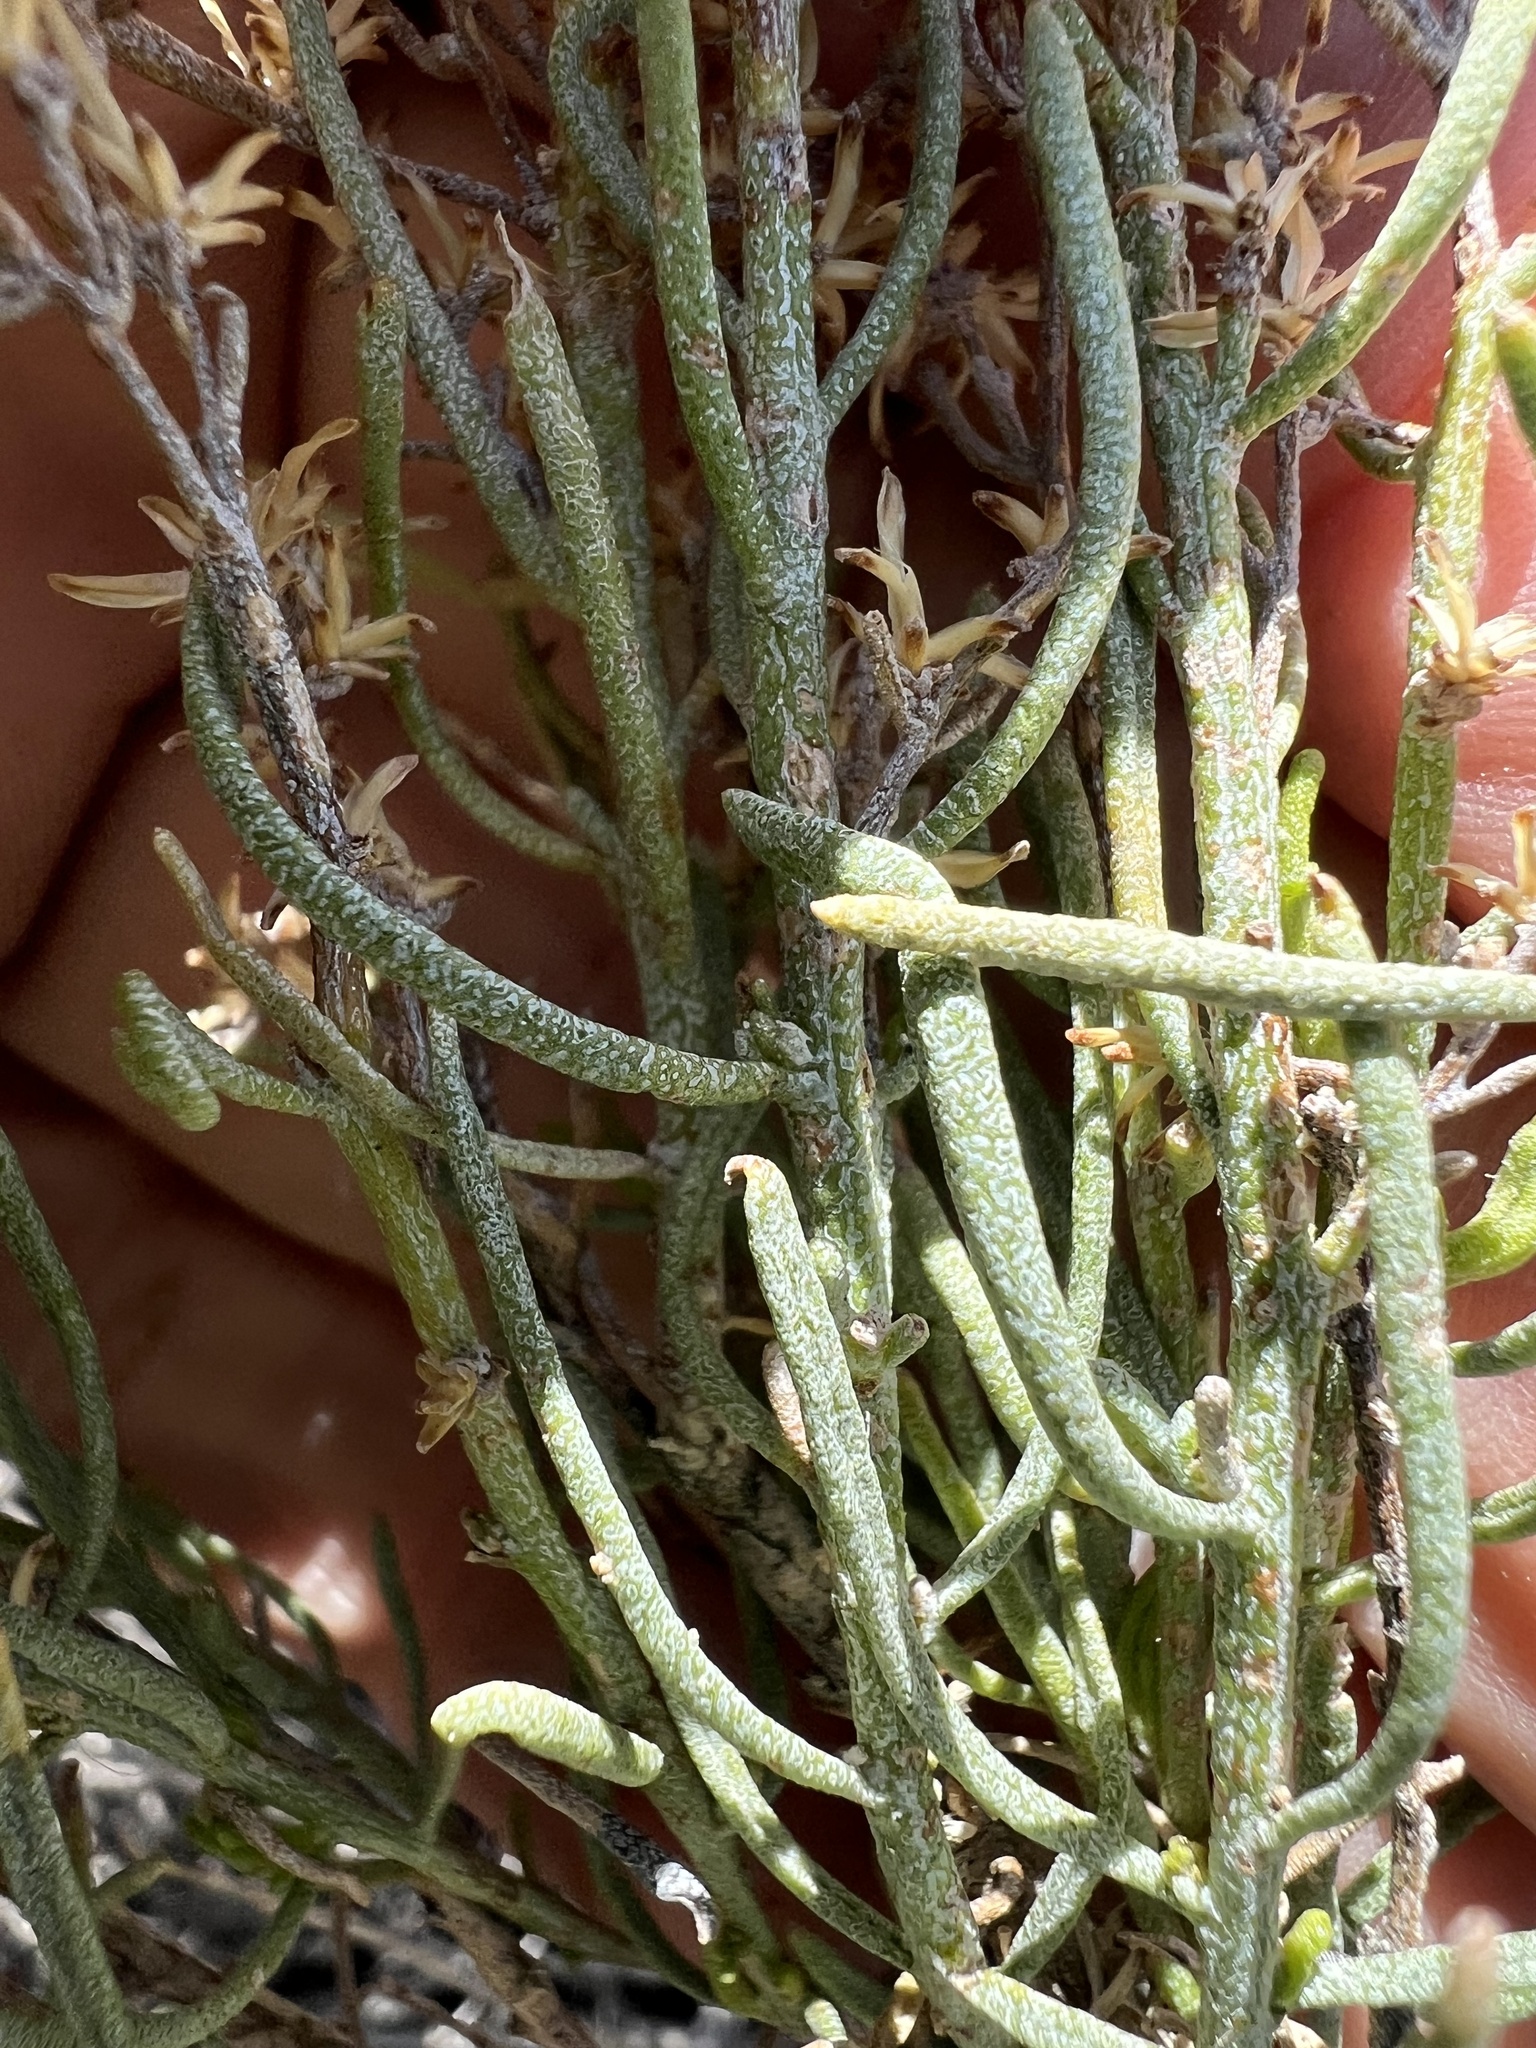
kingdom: Plantae
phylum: Tracheophyta
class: Magnoliopsida
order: Asterales
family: Asteraceae
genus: Ericameria
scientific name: Ericameria teretifolia
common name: Round-leaf rabbitbrush
